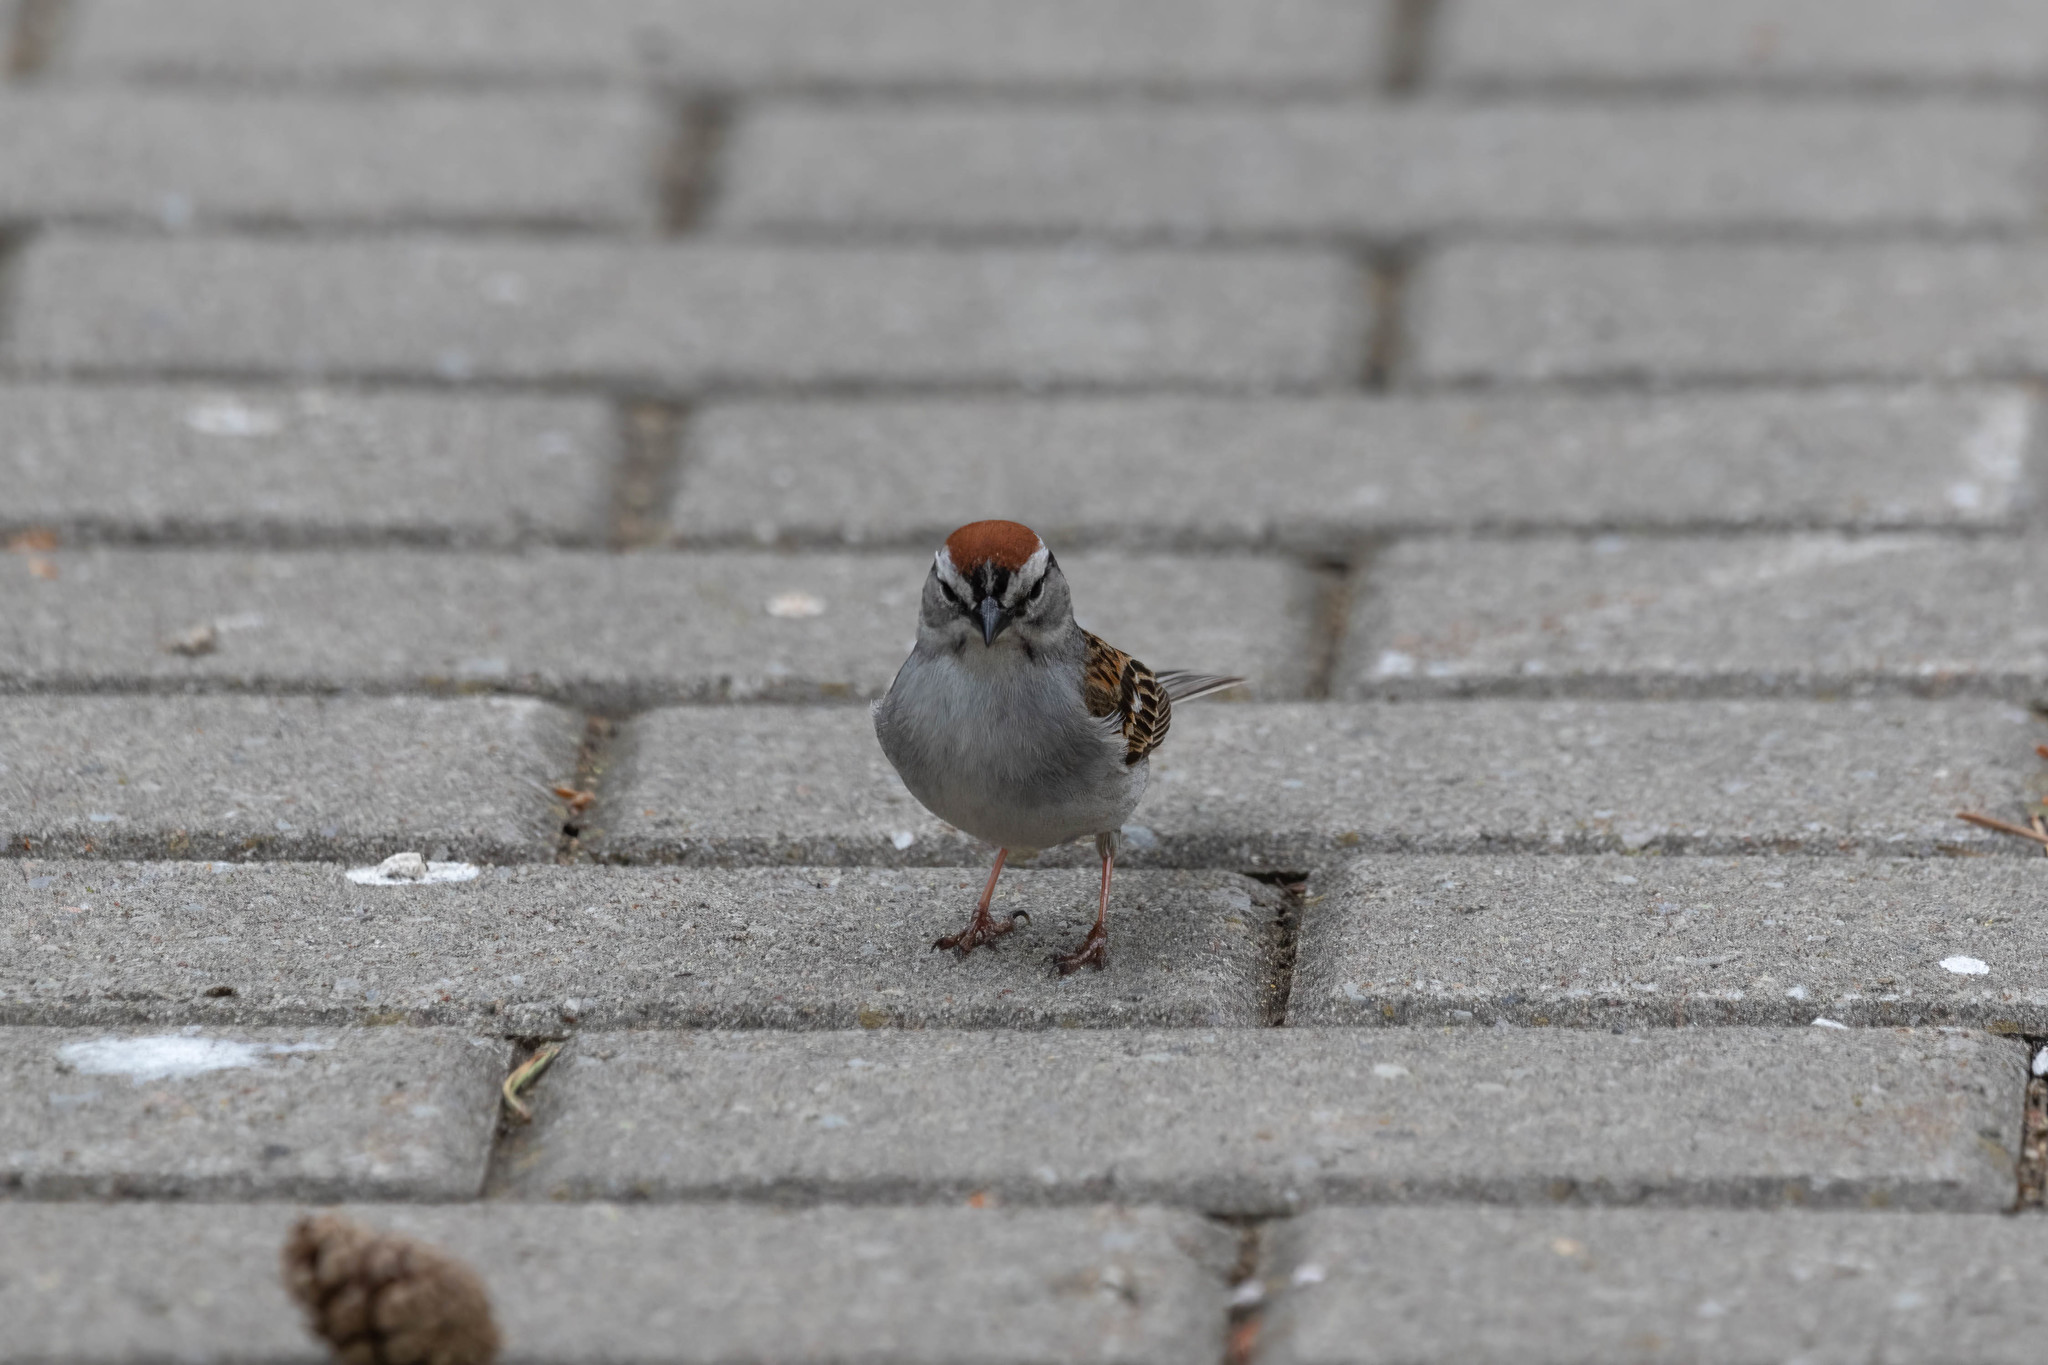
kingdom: Animalia
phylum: Chordata
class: Aves
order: Passeriformes
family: Passerellidae
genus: Spizella
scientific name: Spizella passerina
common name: Chipping sparrow
